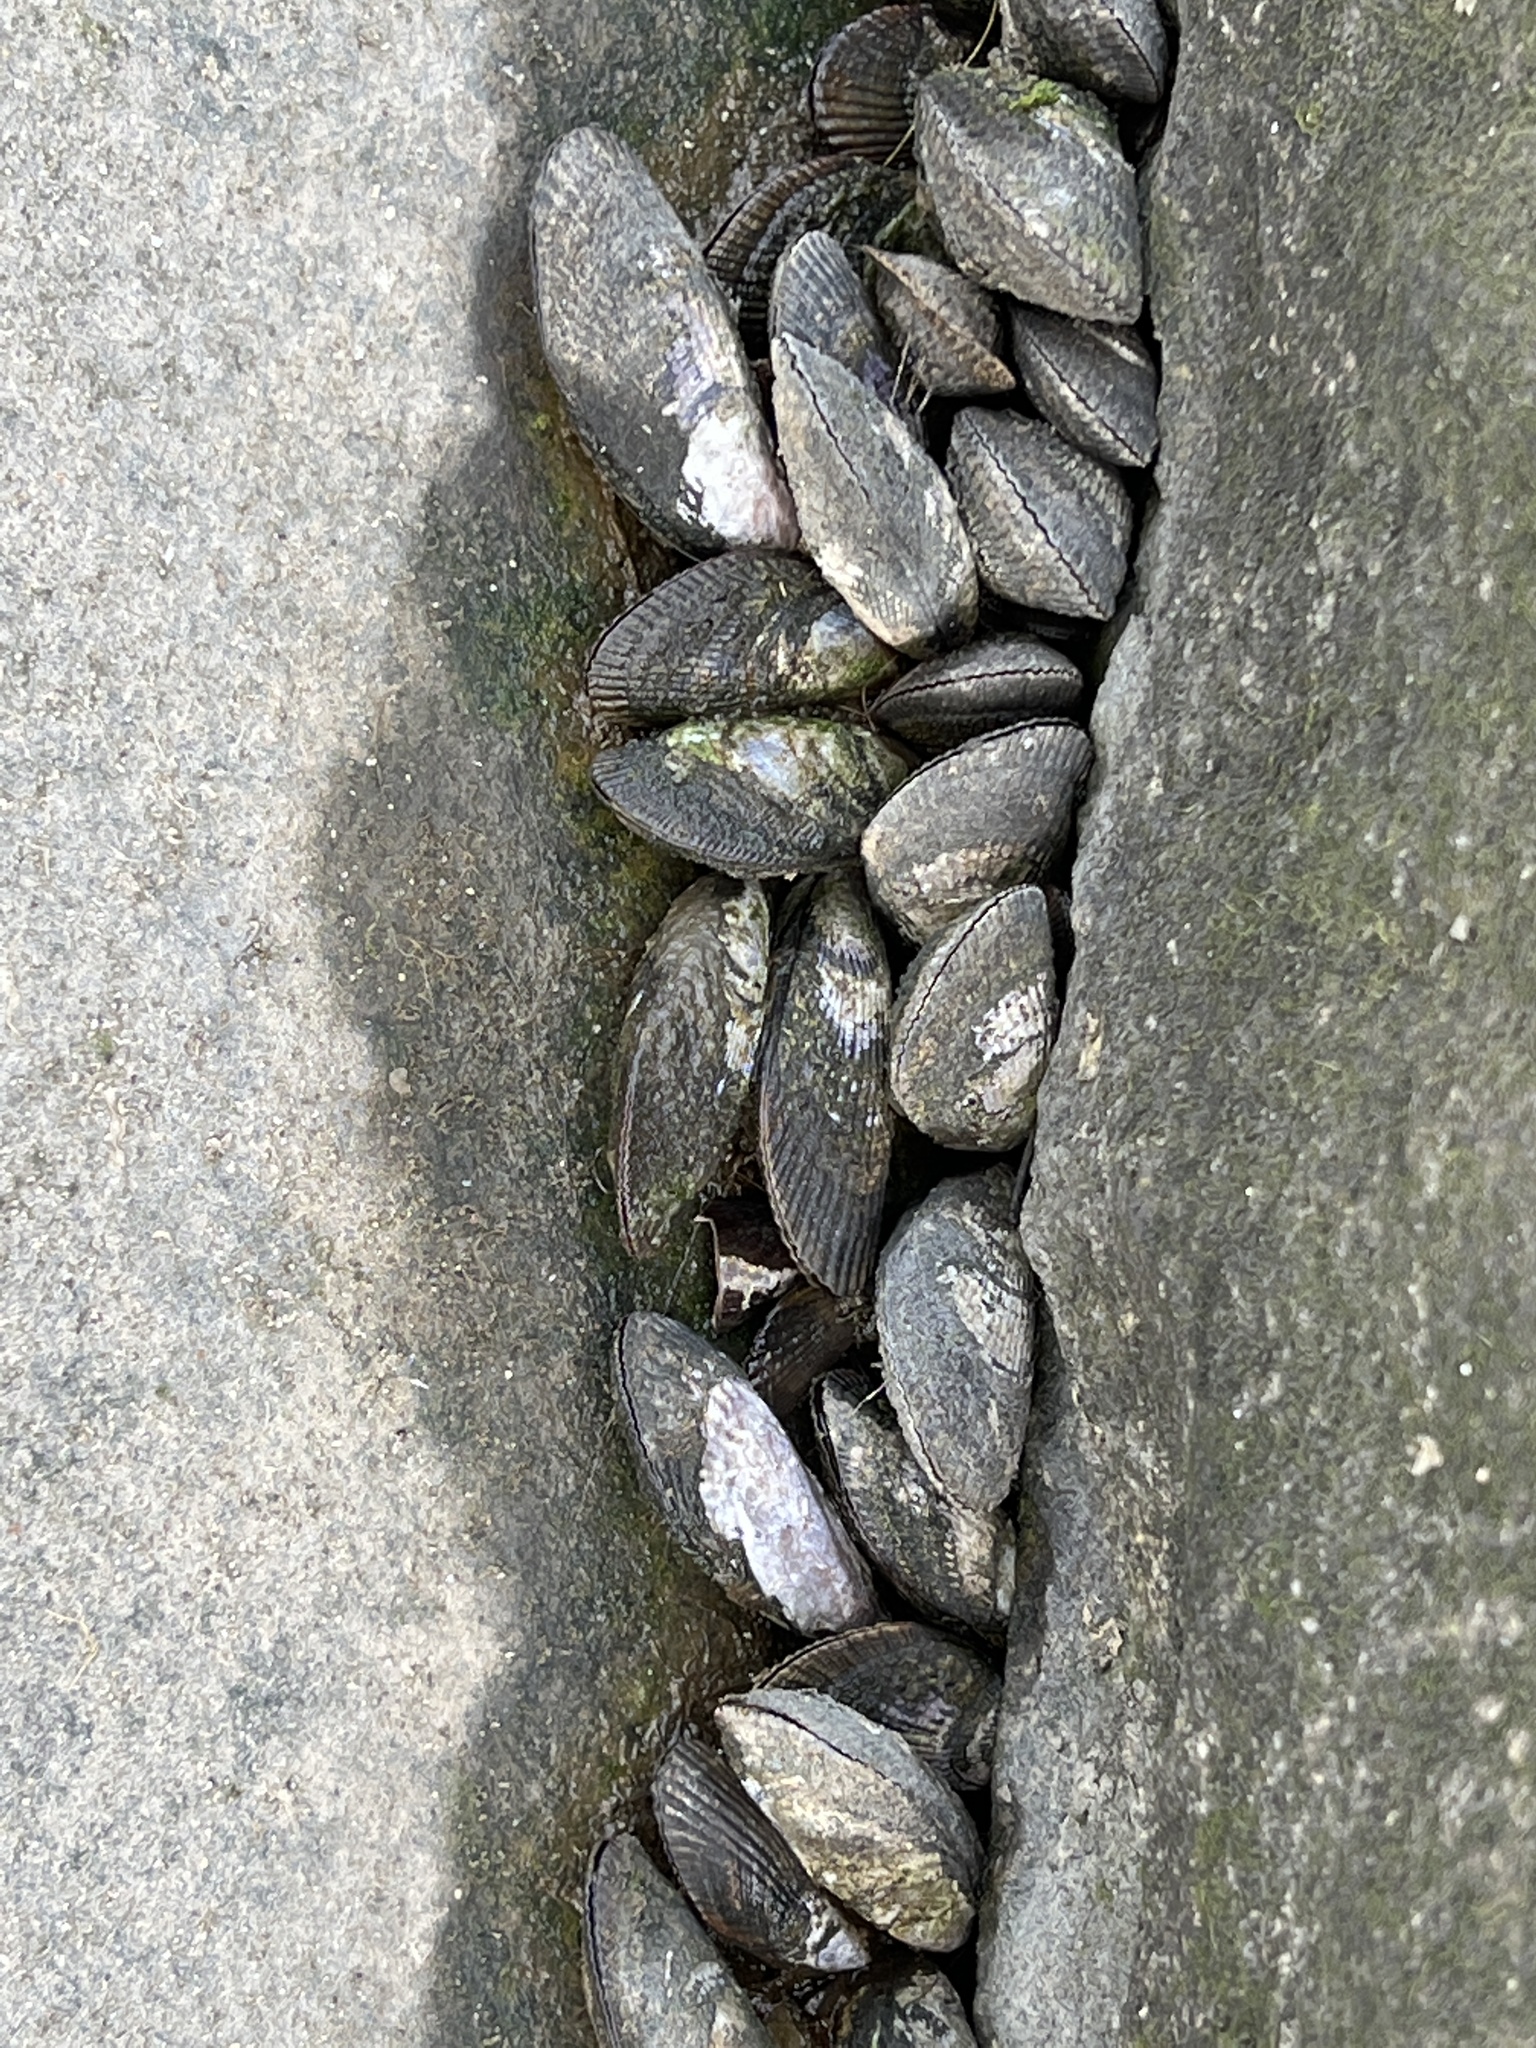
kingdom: Animalia
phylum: Mollusca
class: Bivalvia
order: Mytilida
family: Mytilidae
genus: Geukensia
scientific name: Geukensia demissa
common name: Ribbed mussel
